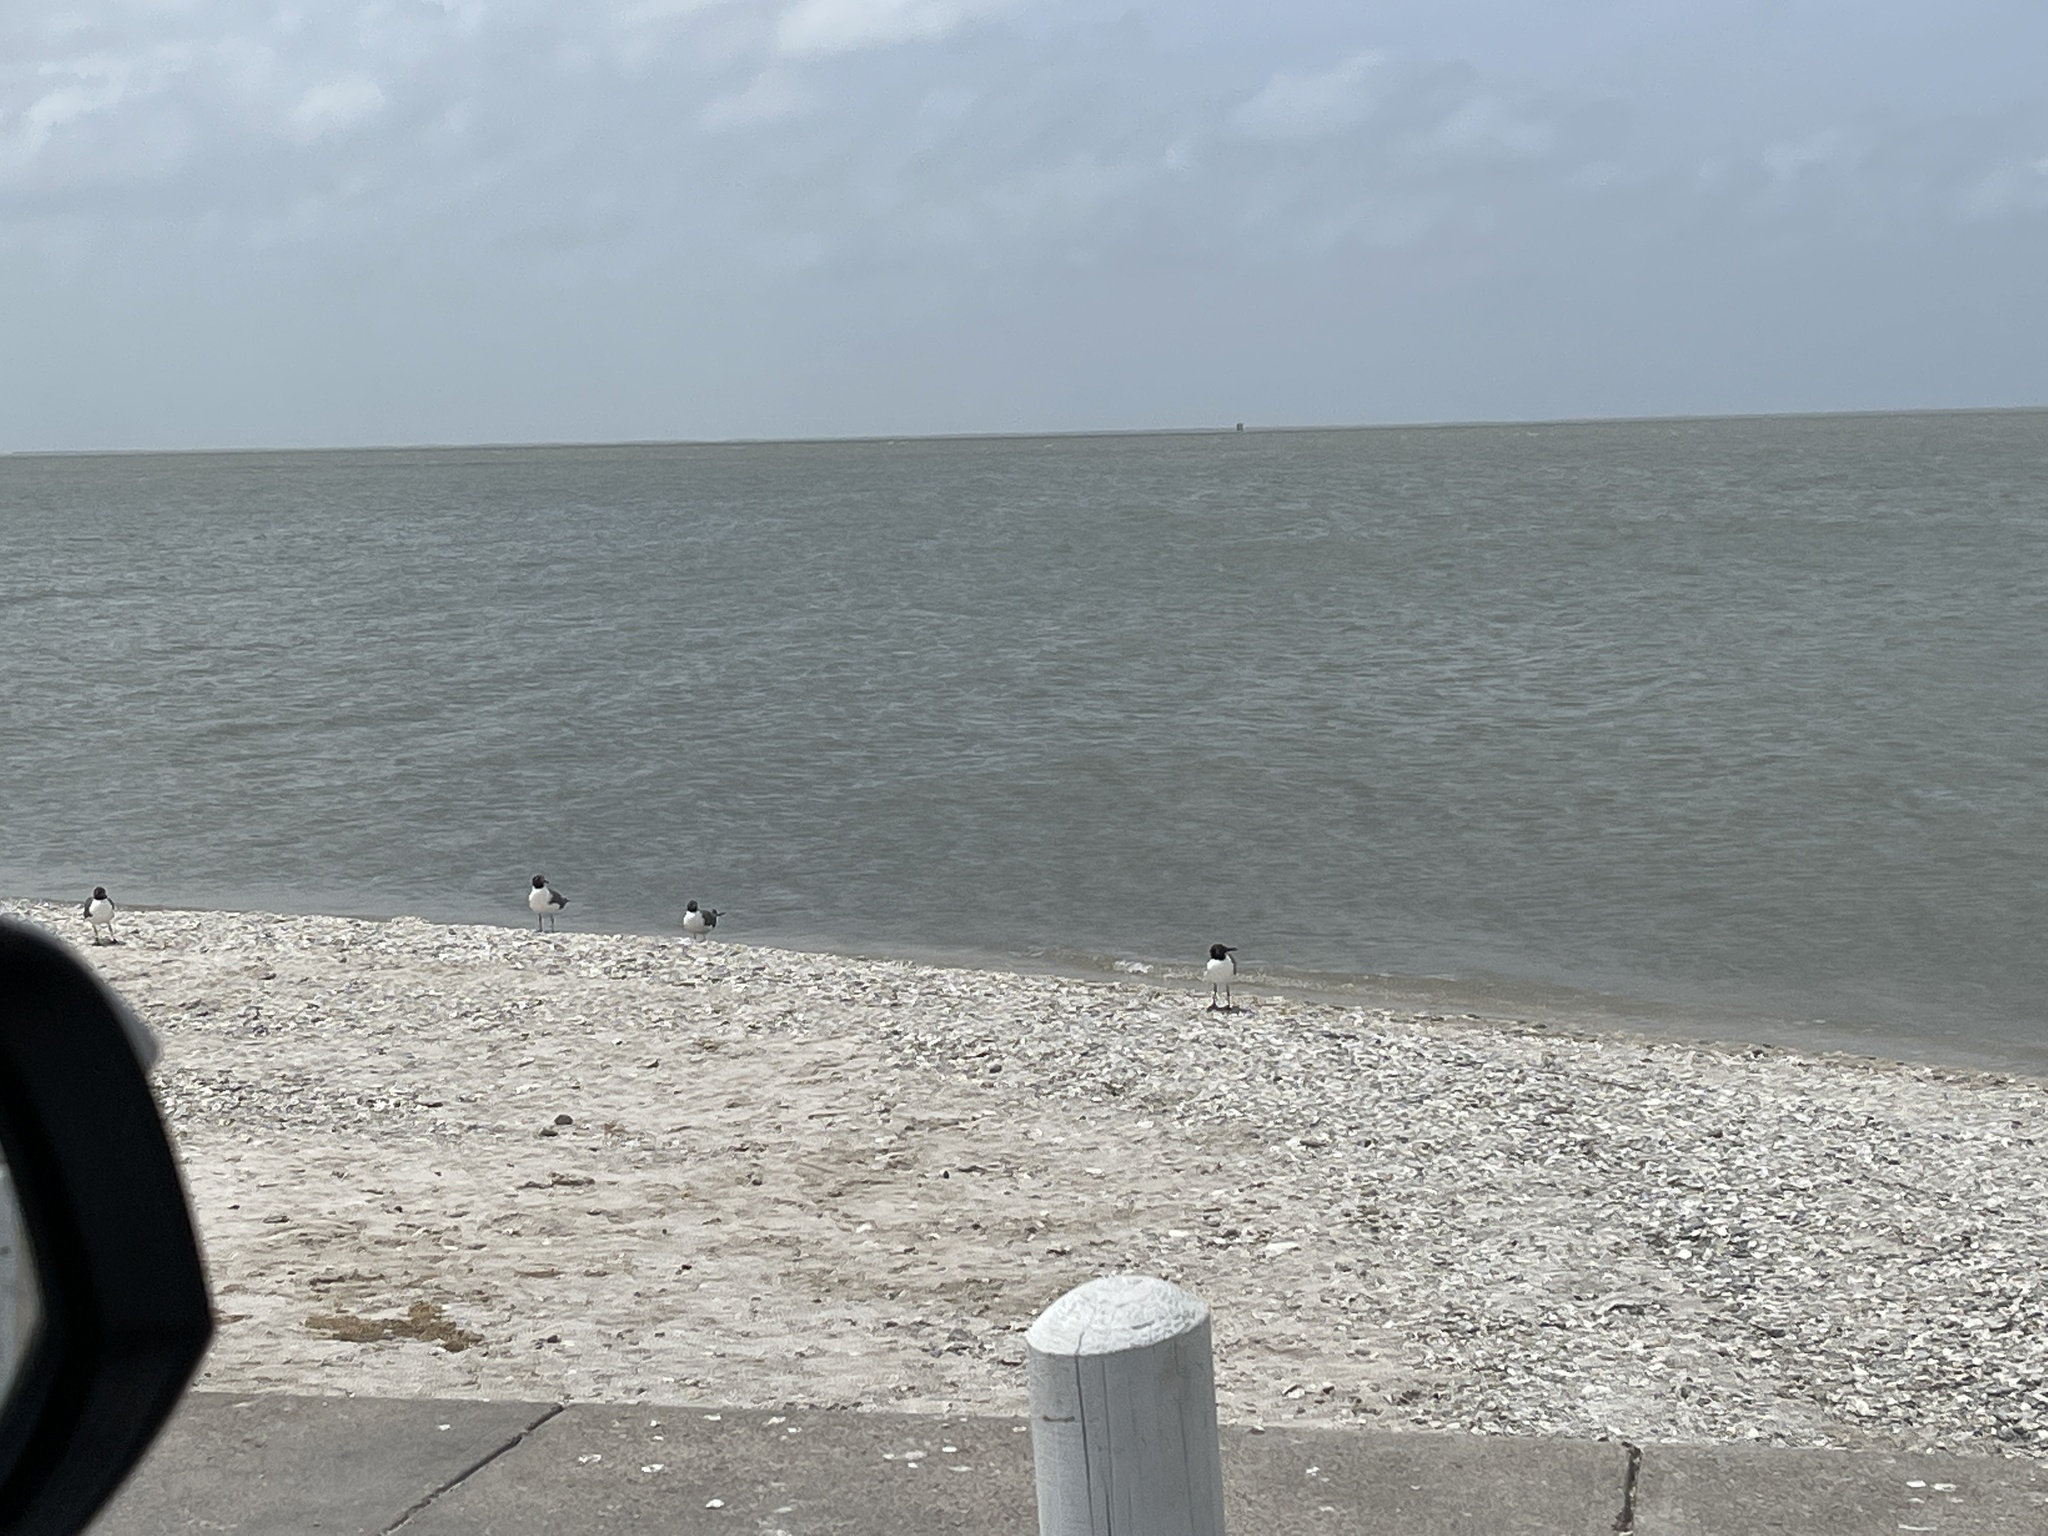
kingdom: Animalia
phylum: Chordata
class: Aves
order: Charadriiformes
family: Laridae
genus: Leucophaeus
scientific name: Leucophaeus atricilla
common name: Laughing gull
